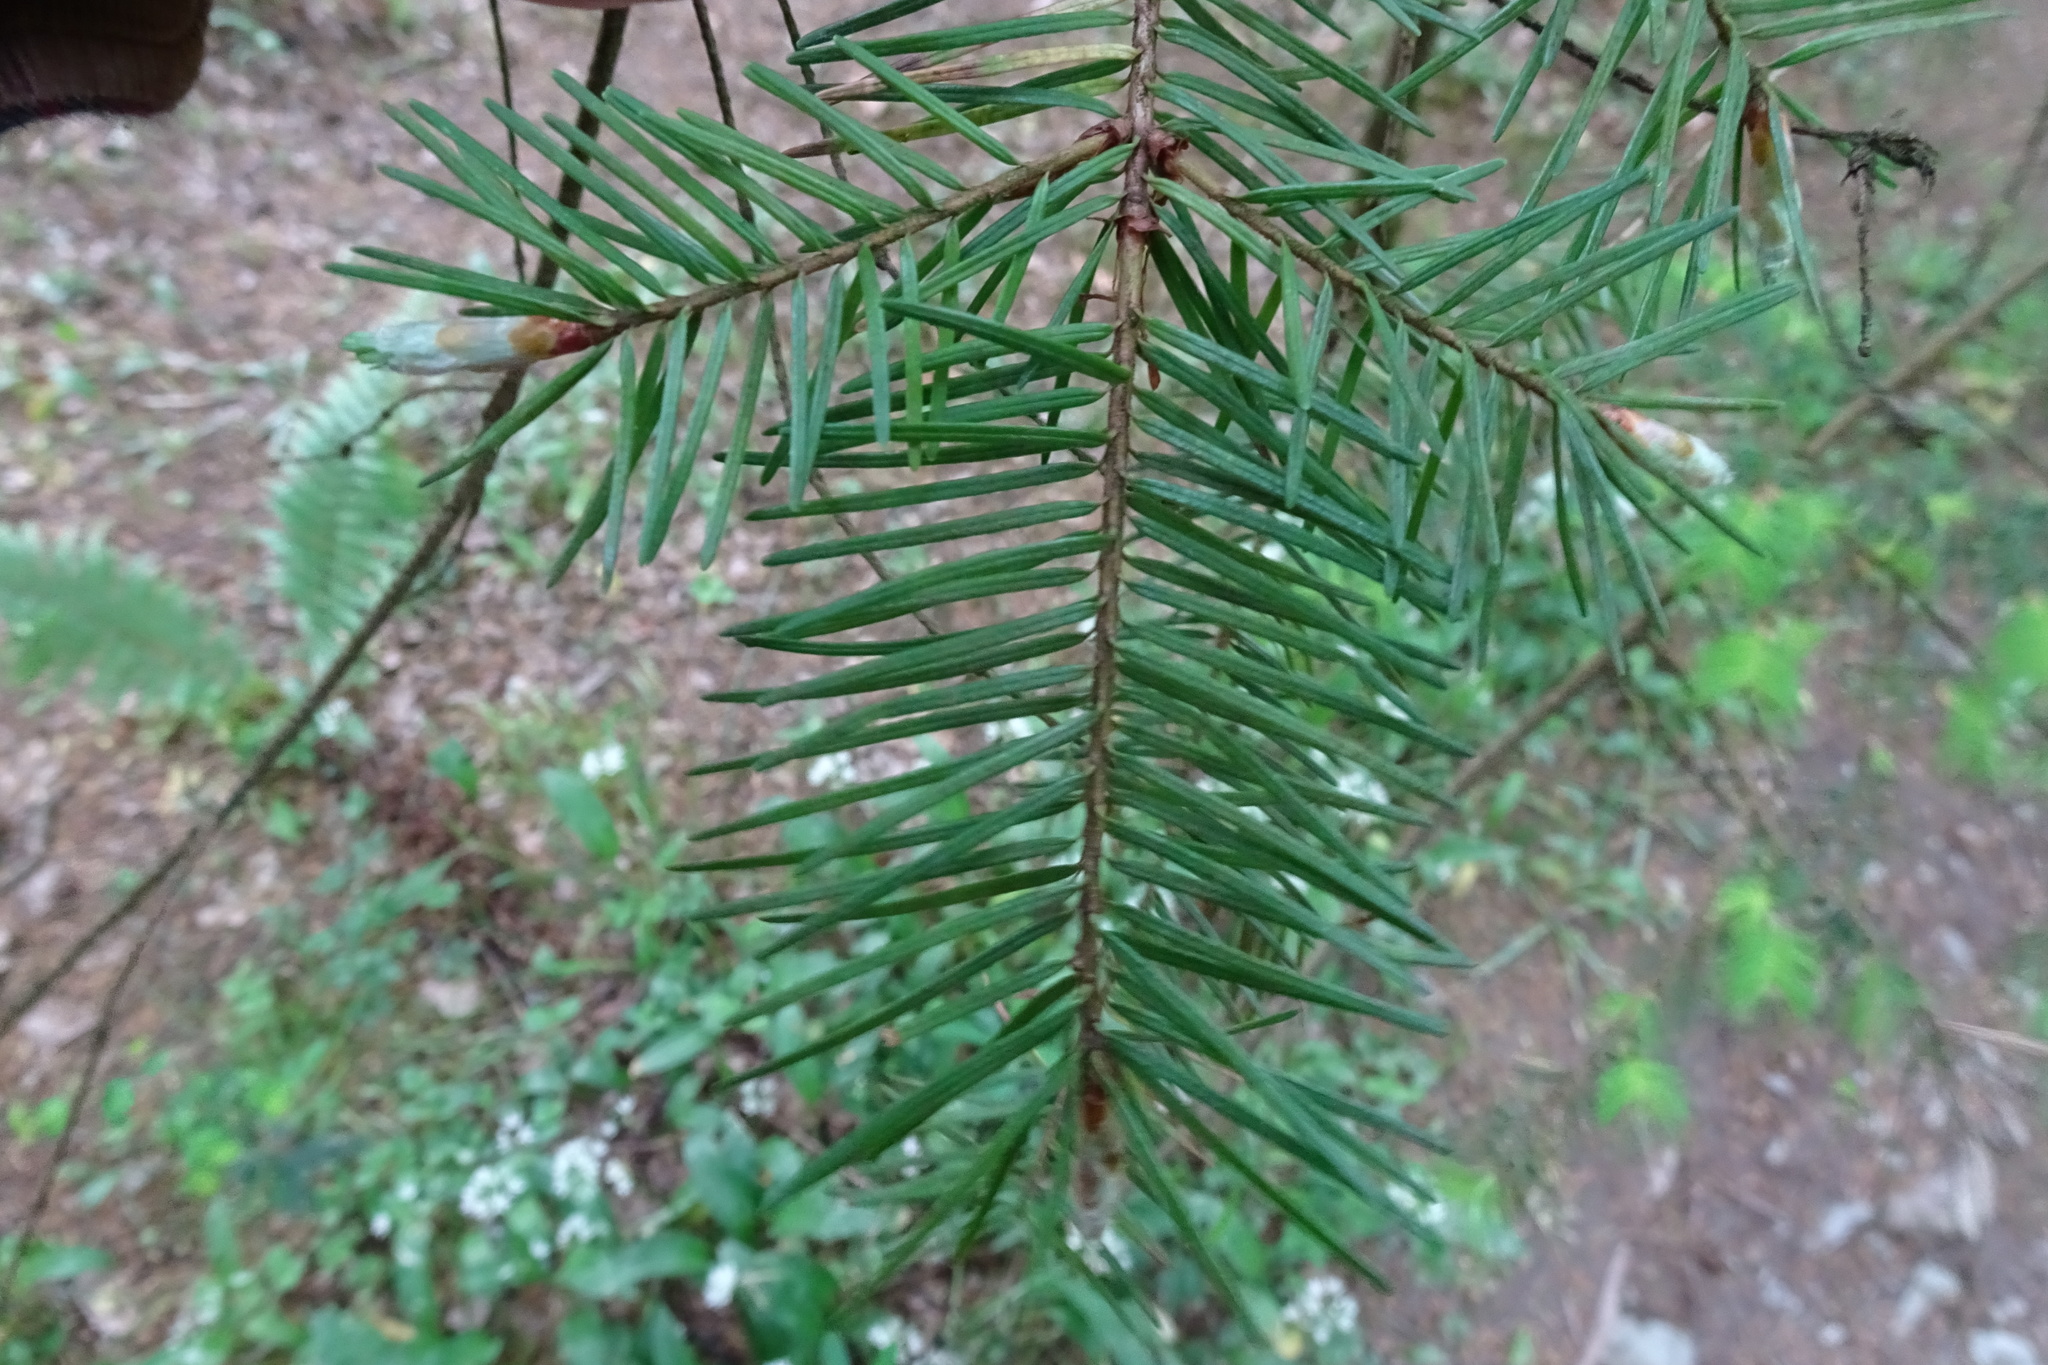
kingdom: Plantae
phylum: Tracheophyta
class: Pinopsida
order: Pinales
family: Pinaceae
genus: Pseudotsuga
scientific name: Pseudotsuga menziesii
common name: Douglas fir
